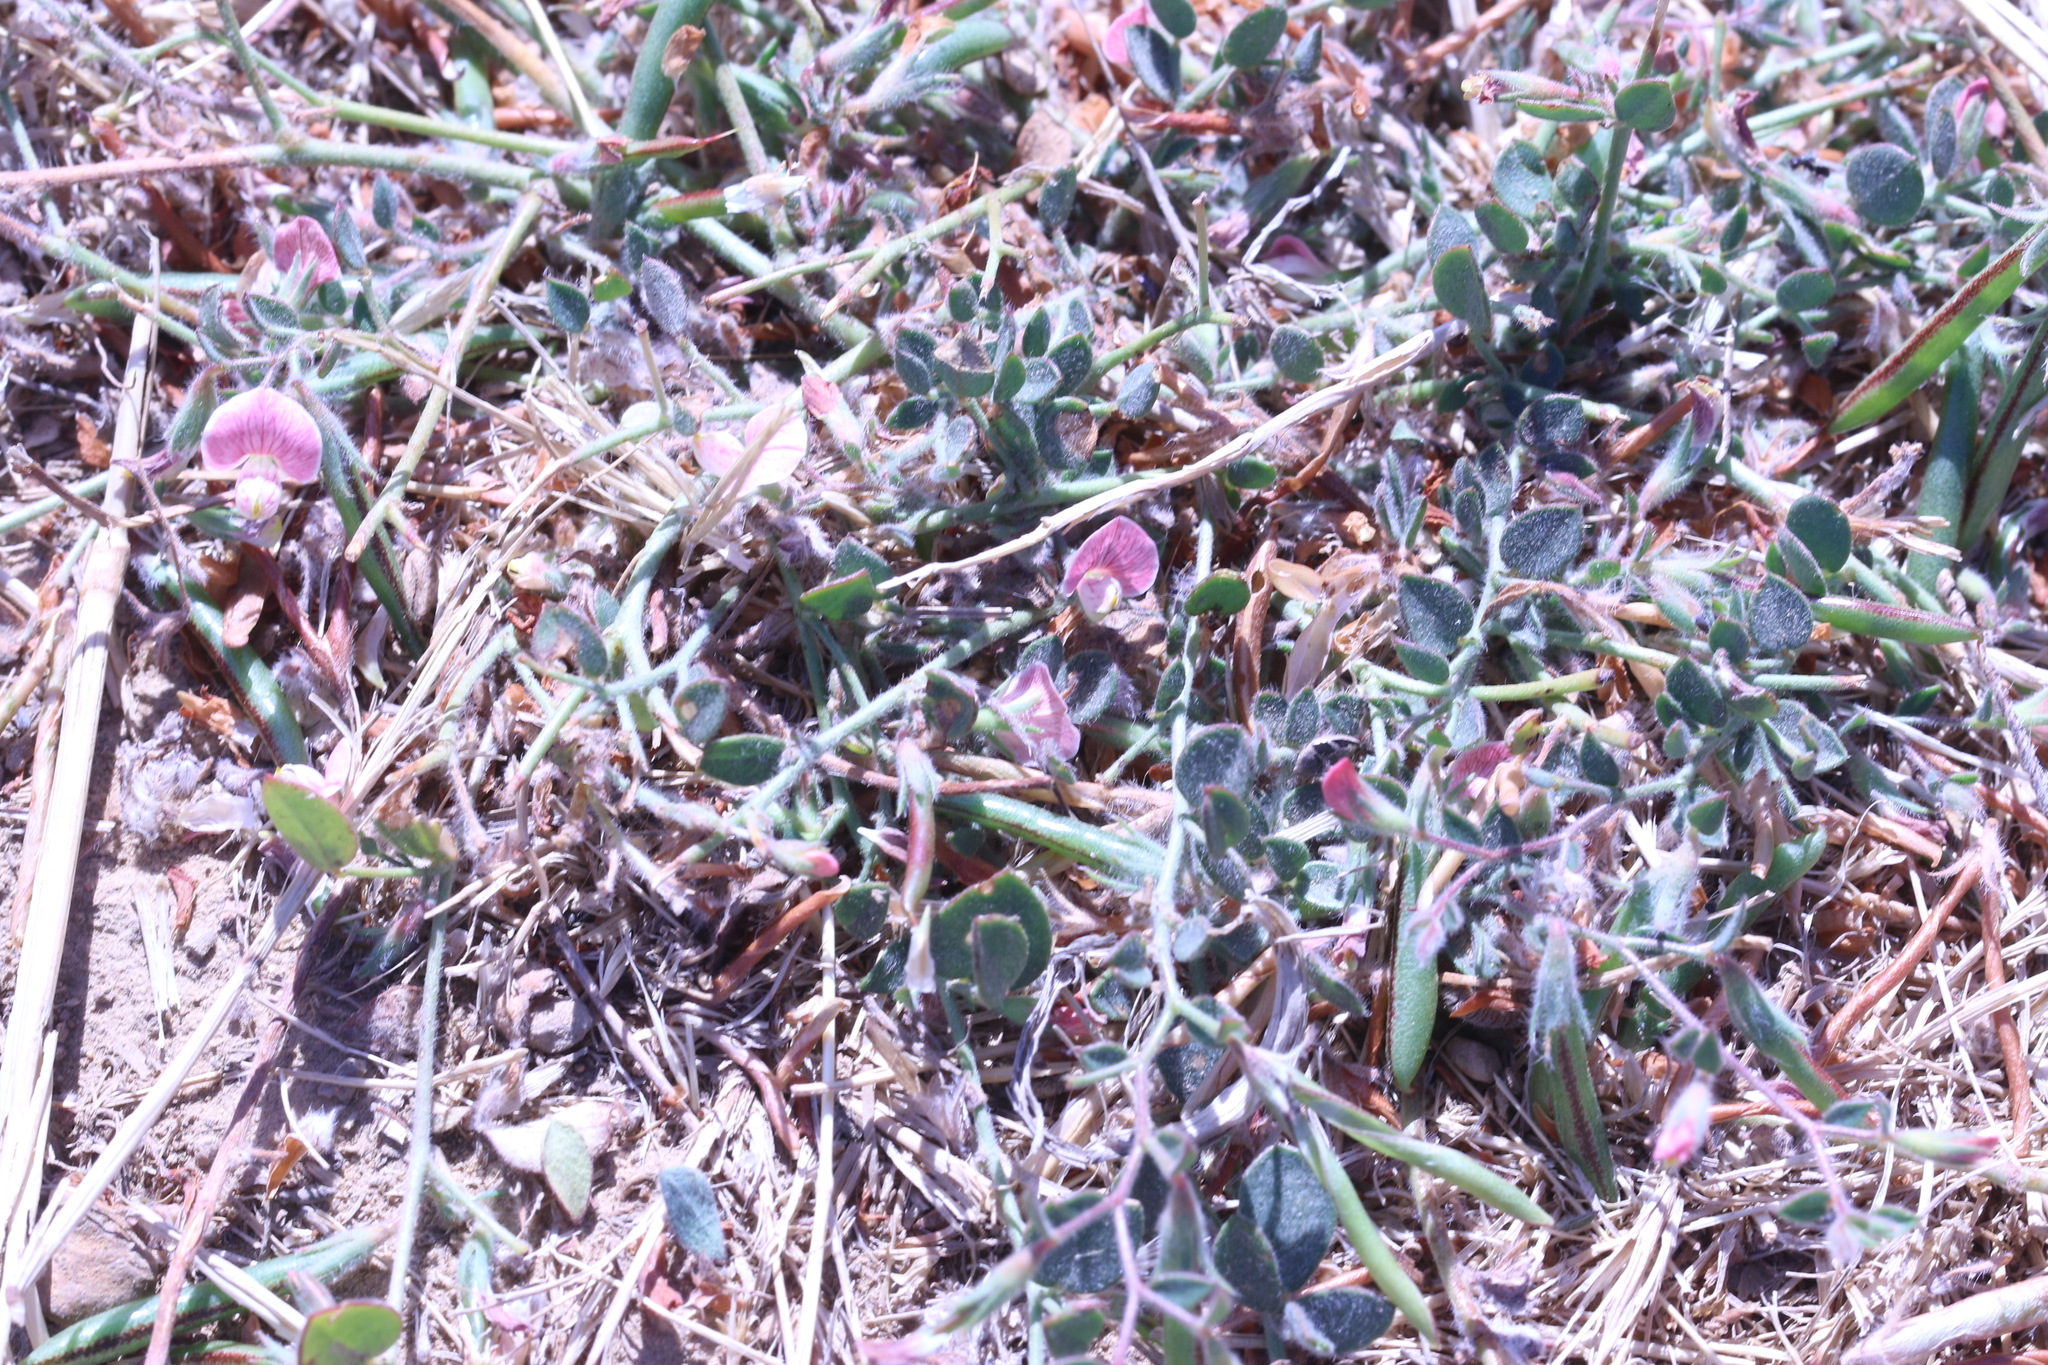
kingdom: Plantae
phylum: Tracheophyta
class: Magnoliopsida
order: Fabales
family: Fabaceae
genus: Acmispon
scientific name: Acmispon americanus
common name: American bird's-foot trefoil
